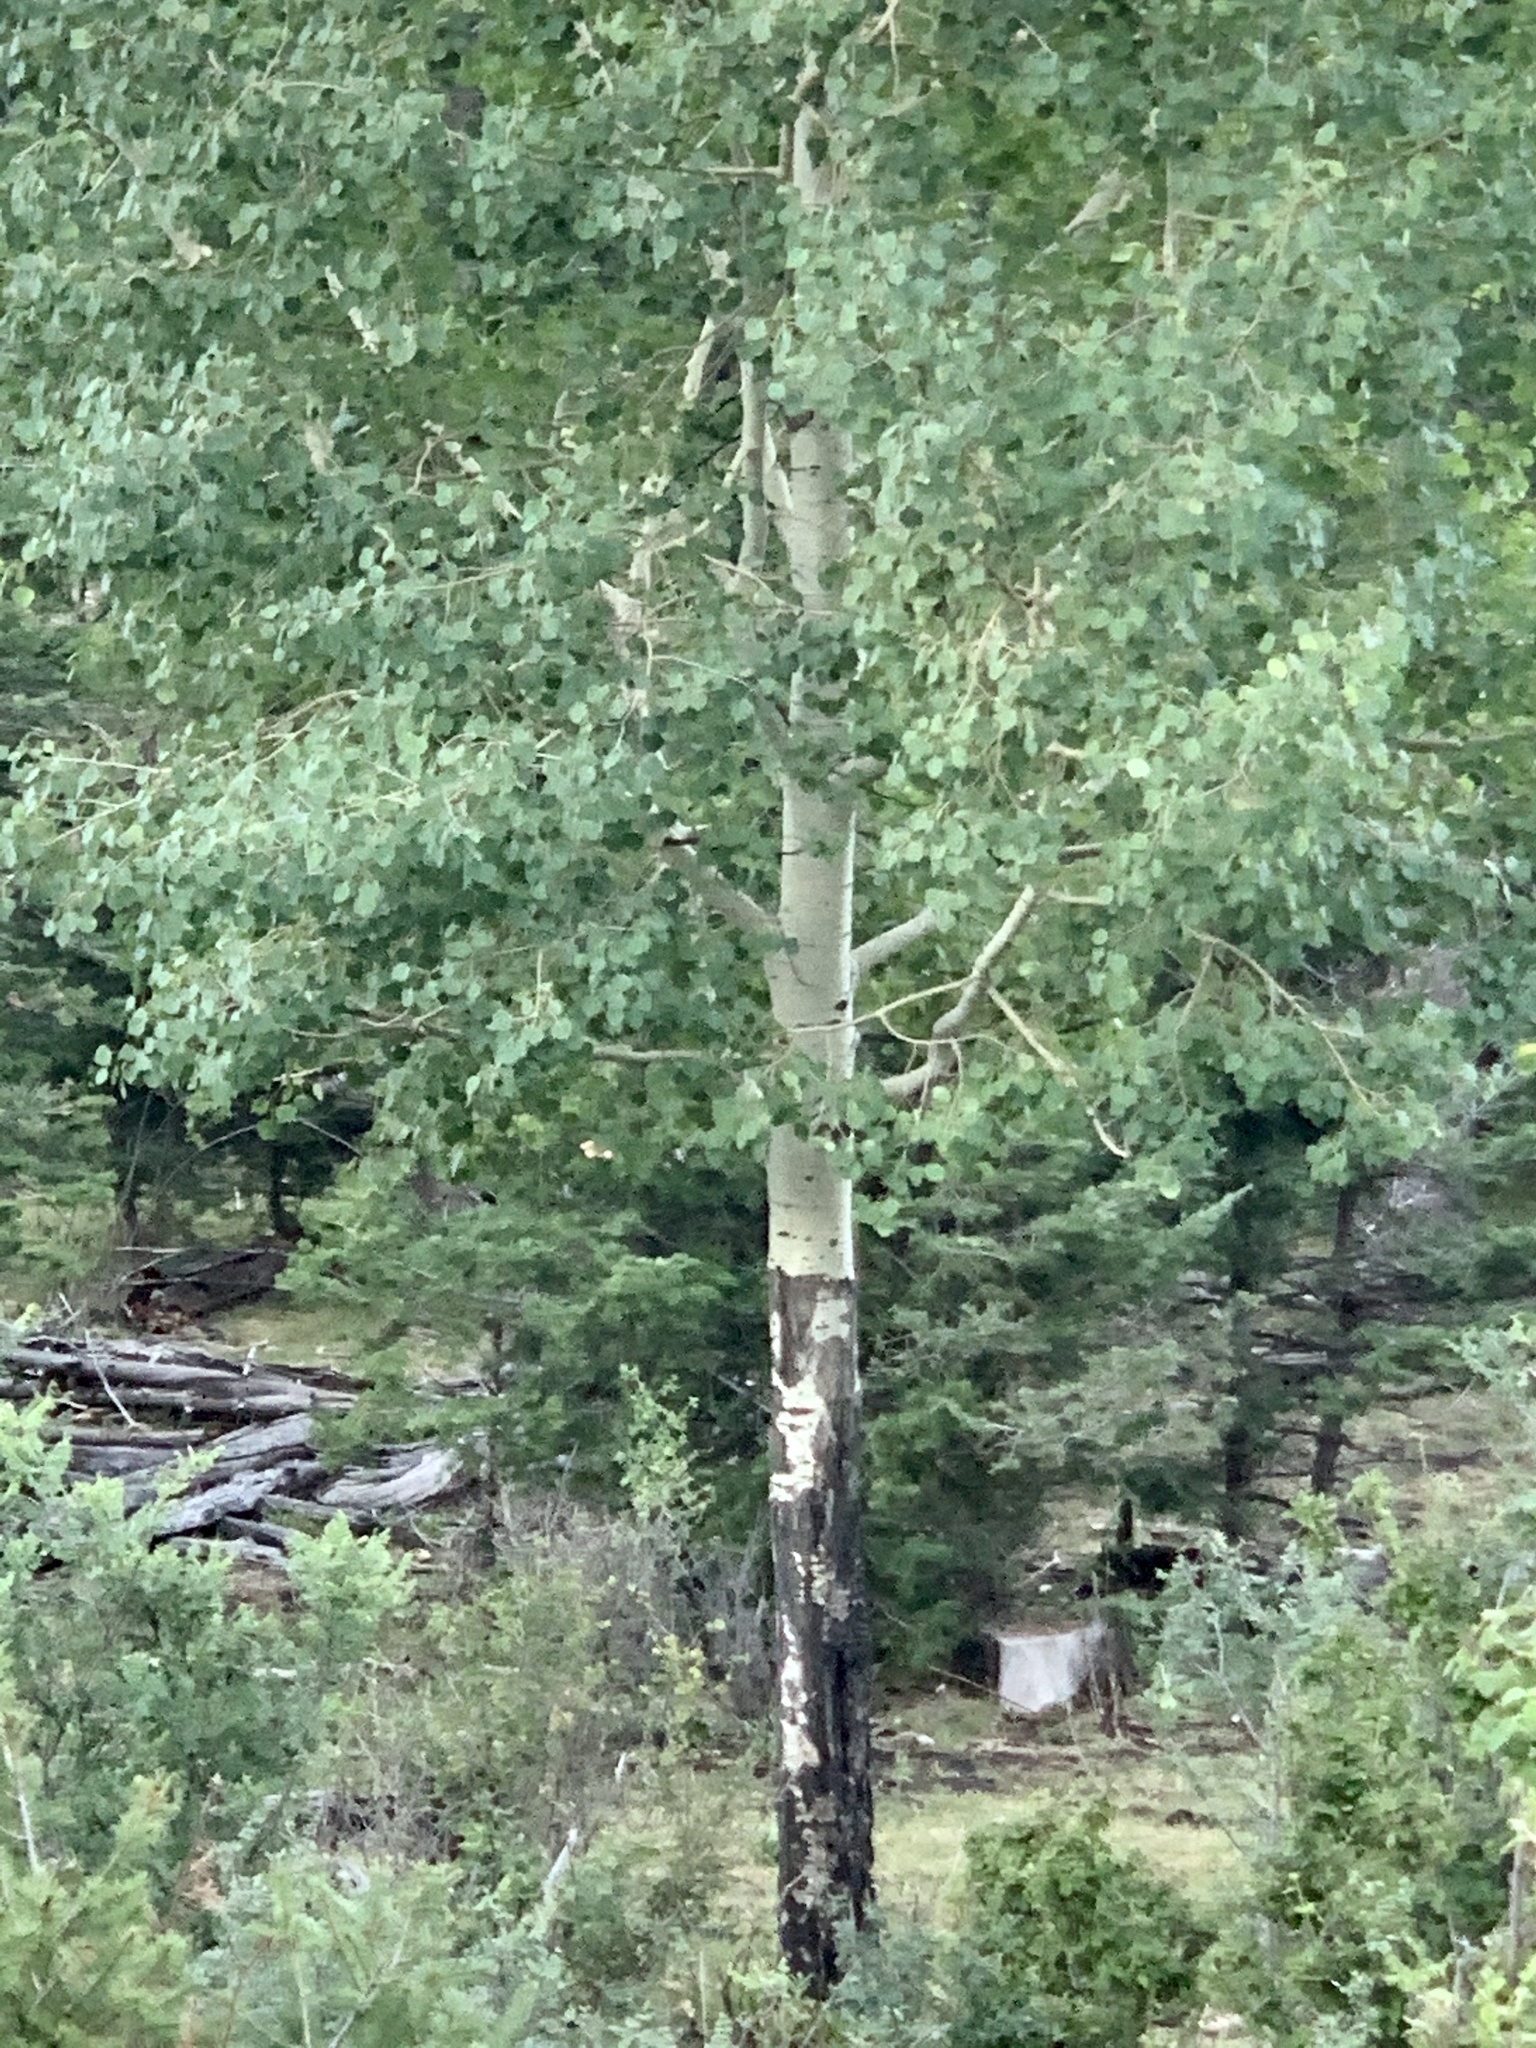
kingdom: Plantae
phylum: Tracheophyta
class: Magnoliopsida
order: Malpighiales
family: Salicaceae
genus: Populus
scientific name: Populus tremuloides
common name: Quaking aspen
